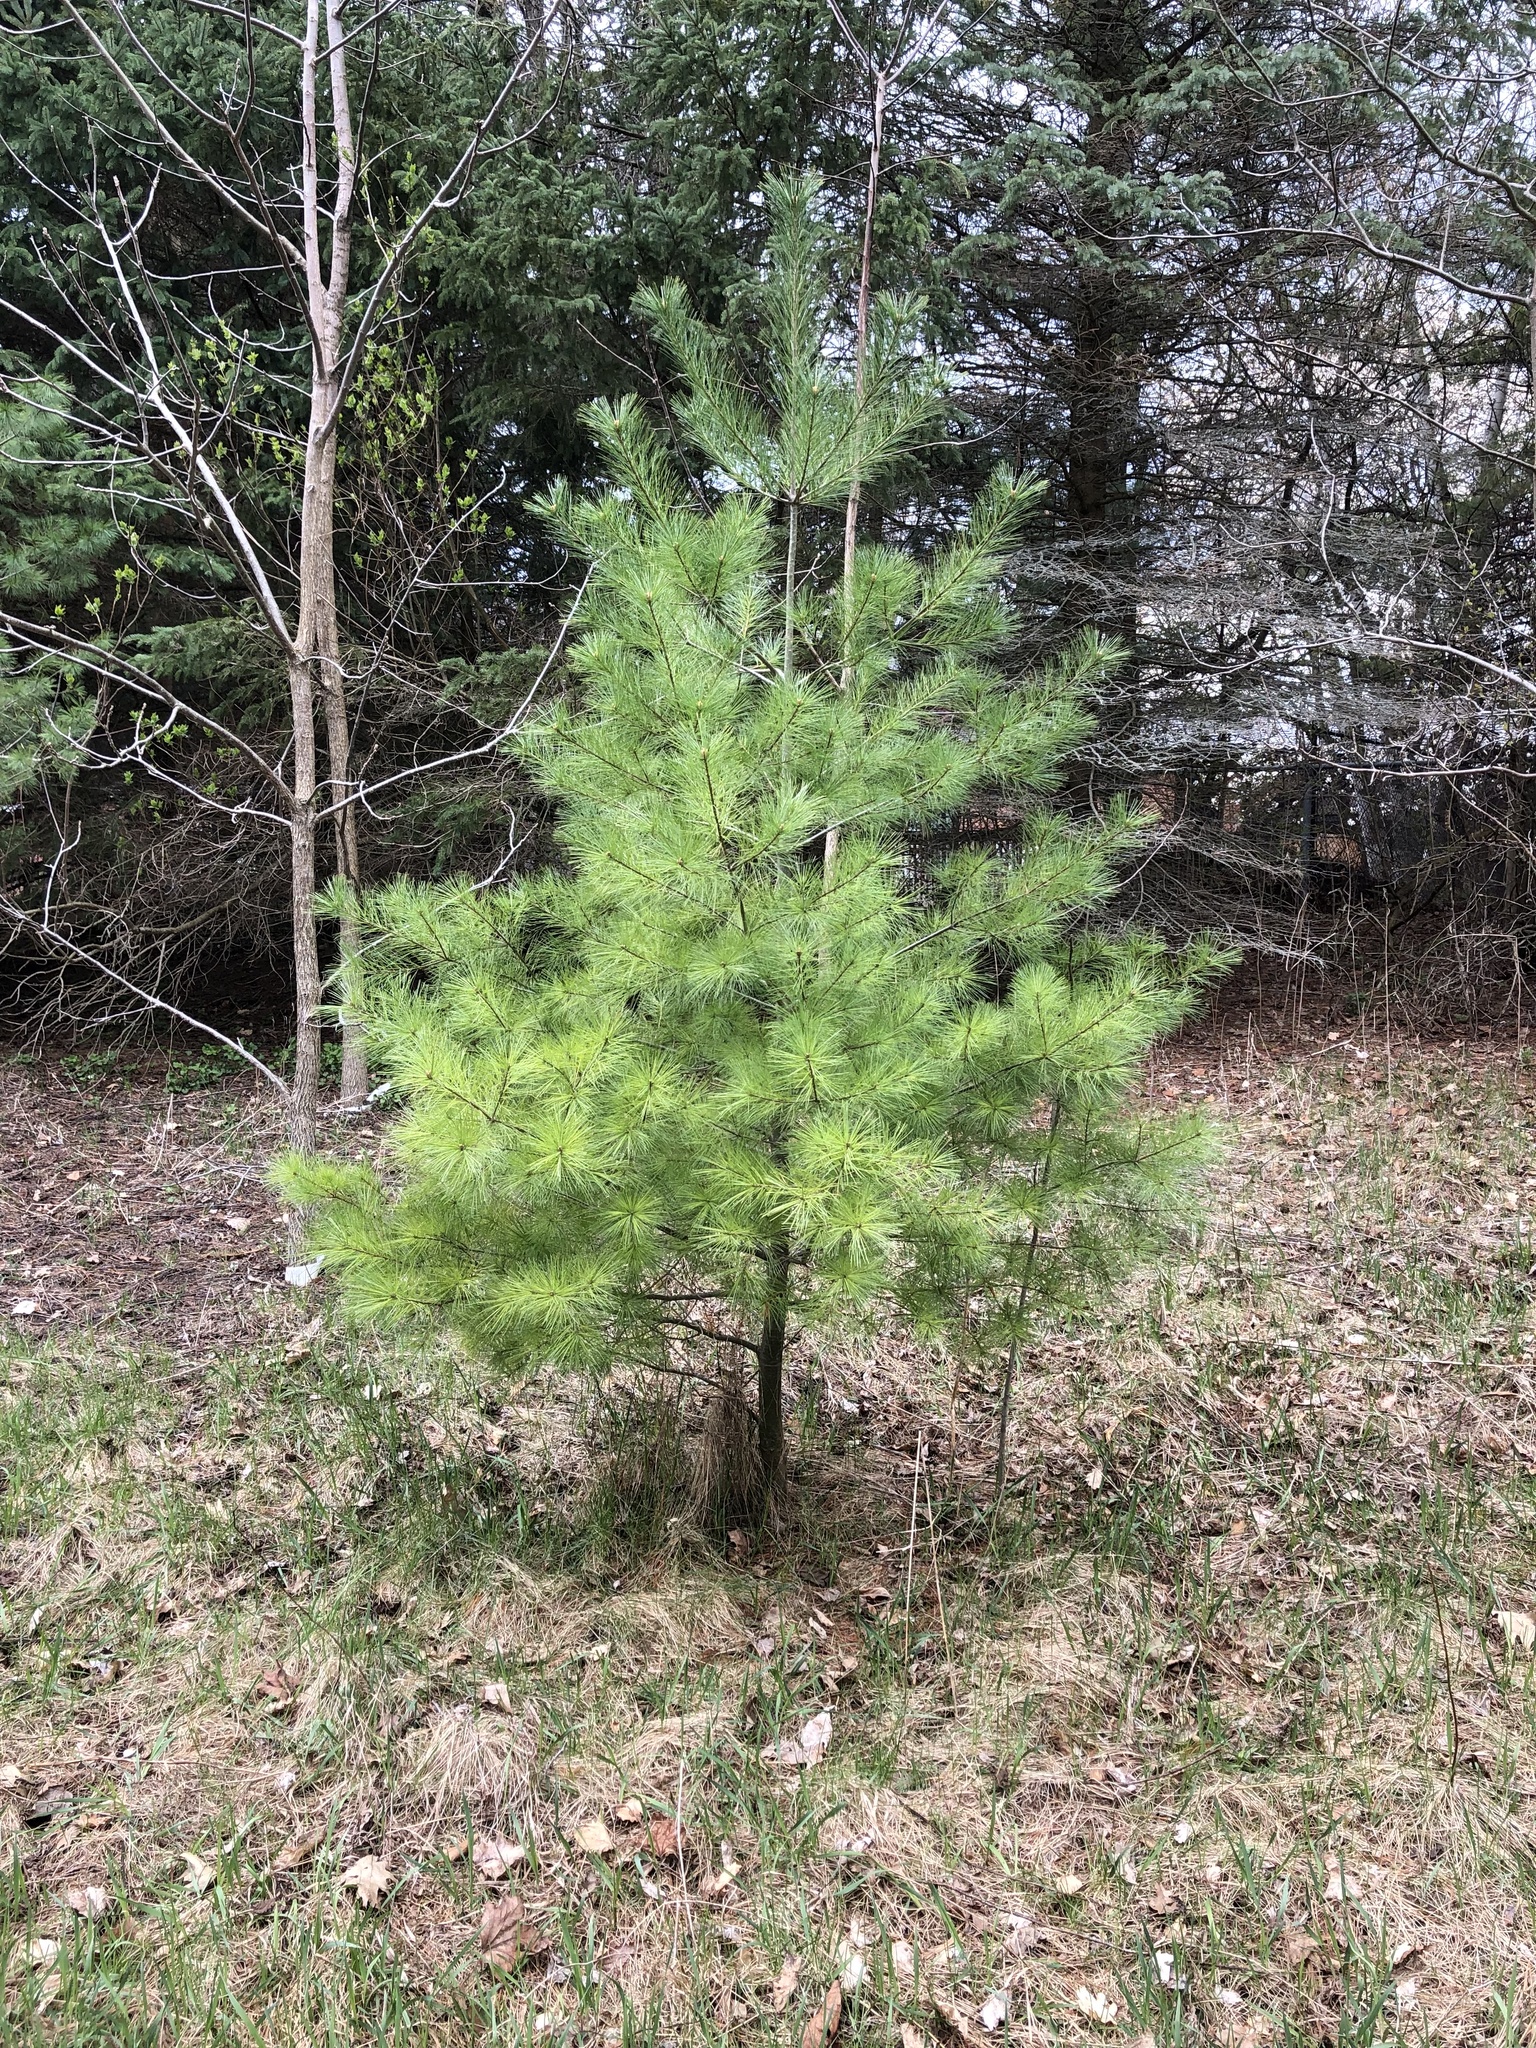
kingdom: Plantae
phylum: Tracheophyta
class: Pinopsida
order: Pinales
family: Pinaceae
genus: Pinus
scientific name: Pinus strobus
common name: Weymouth pine
